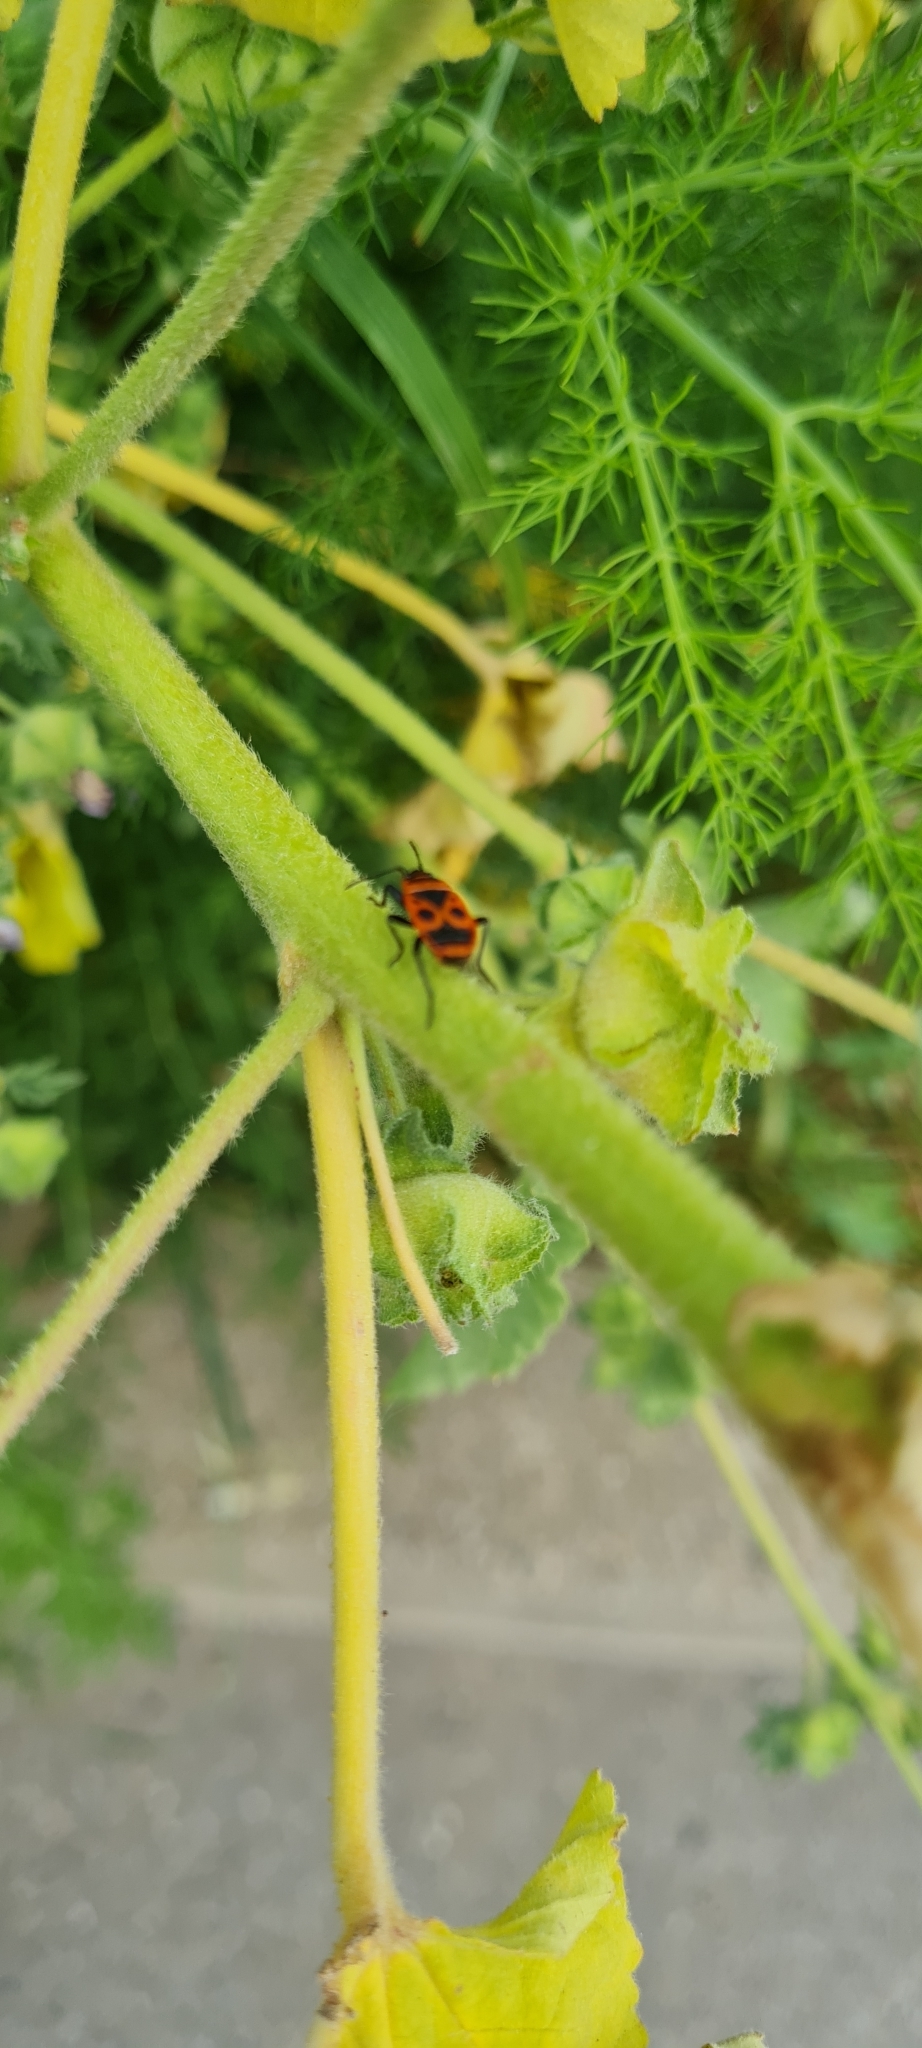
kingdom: Animalia
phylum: Arthropoda
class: Insecta
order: Hemiptera
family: Pyrrhocoridae
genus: Pyrrhocoris
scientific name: Pyrrhocoris apterus
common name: Firebug
